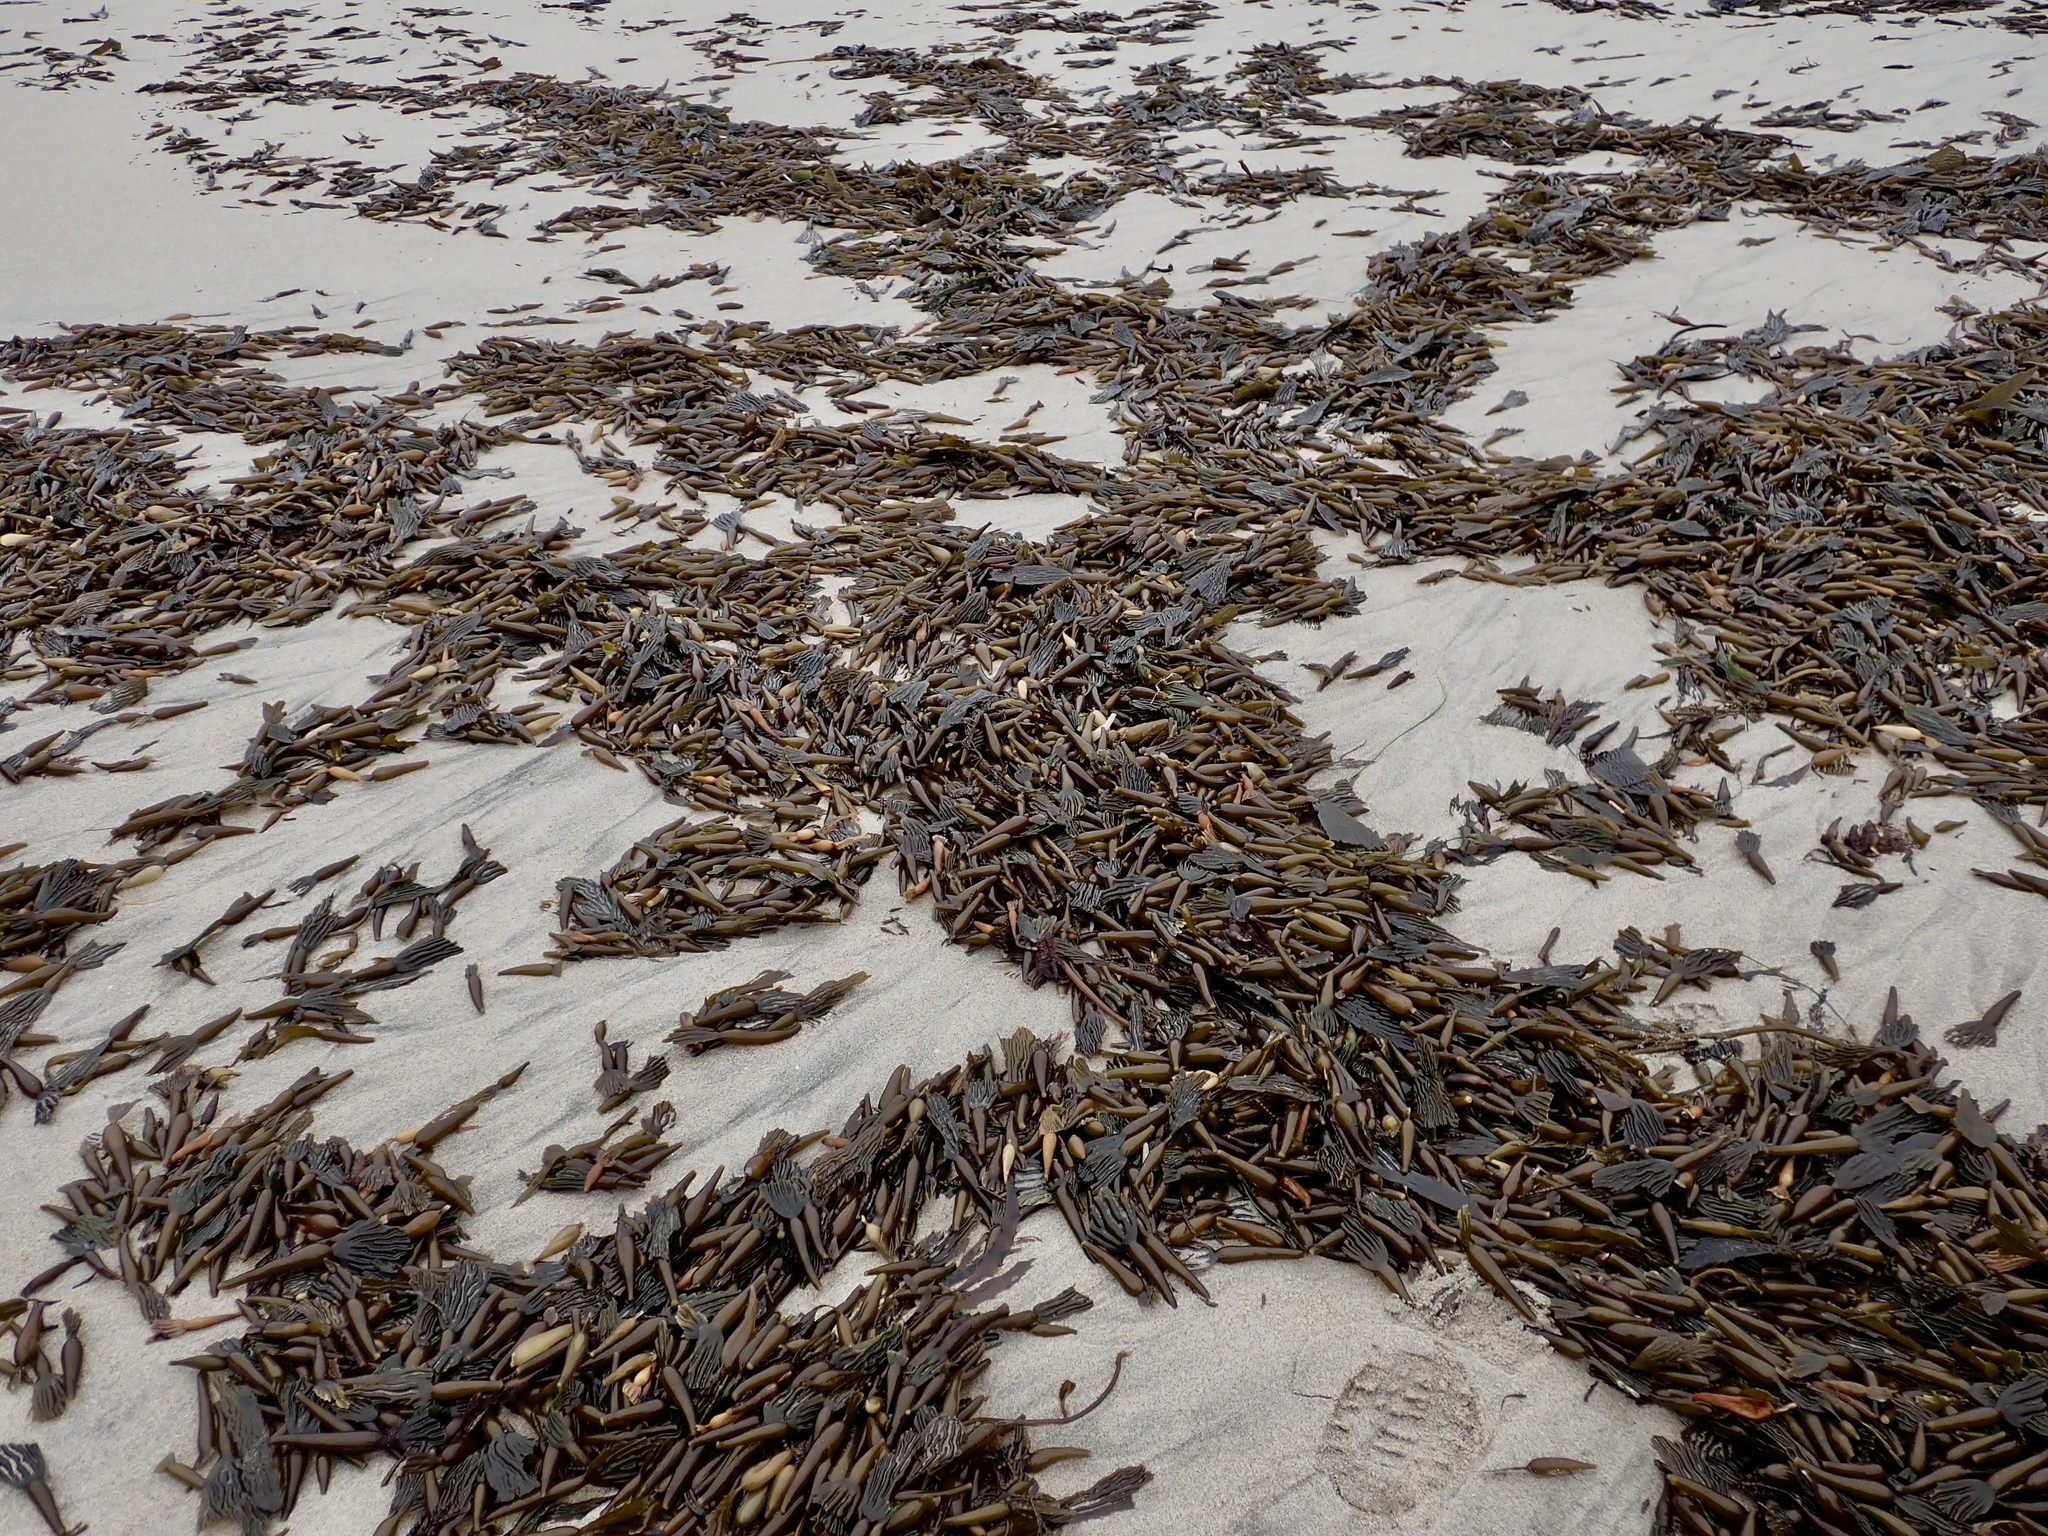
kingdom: Chromista
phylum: Ochrophyta
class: Phaeophyceae
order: Laminariales
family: Laminariaceae
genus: Macrocystis
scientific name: Macrocystis pyrifera
